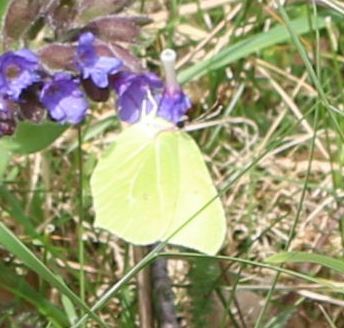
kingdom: Animalia
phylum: Arthropoda
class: Insecta
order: Lepidoptera
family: Pieridae
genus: Gonepteryx
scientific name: Gonepteryx rhamni
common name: Brimstone
